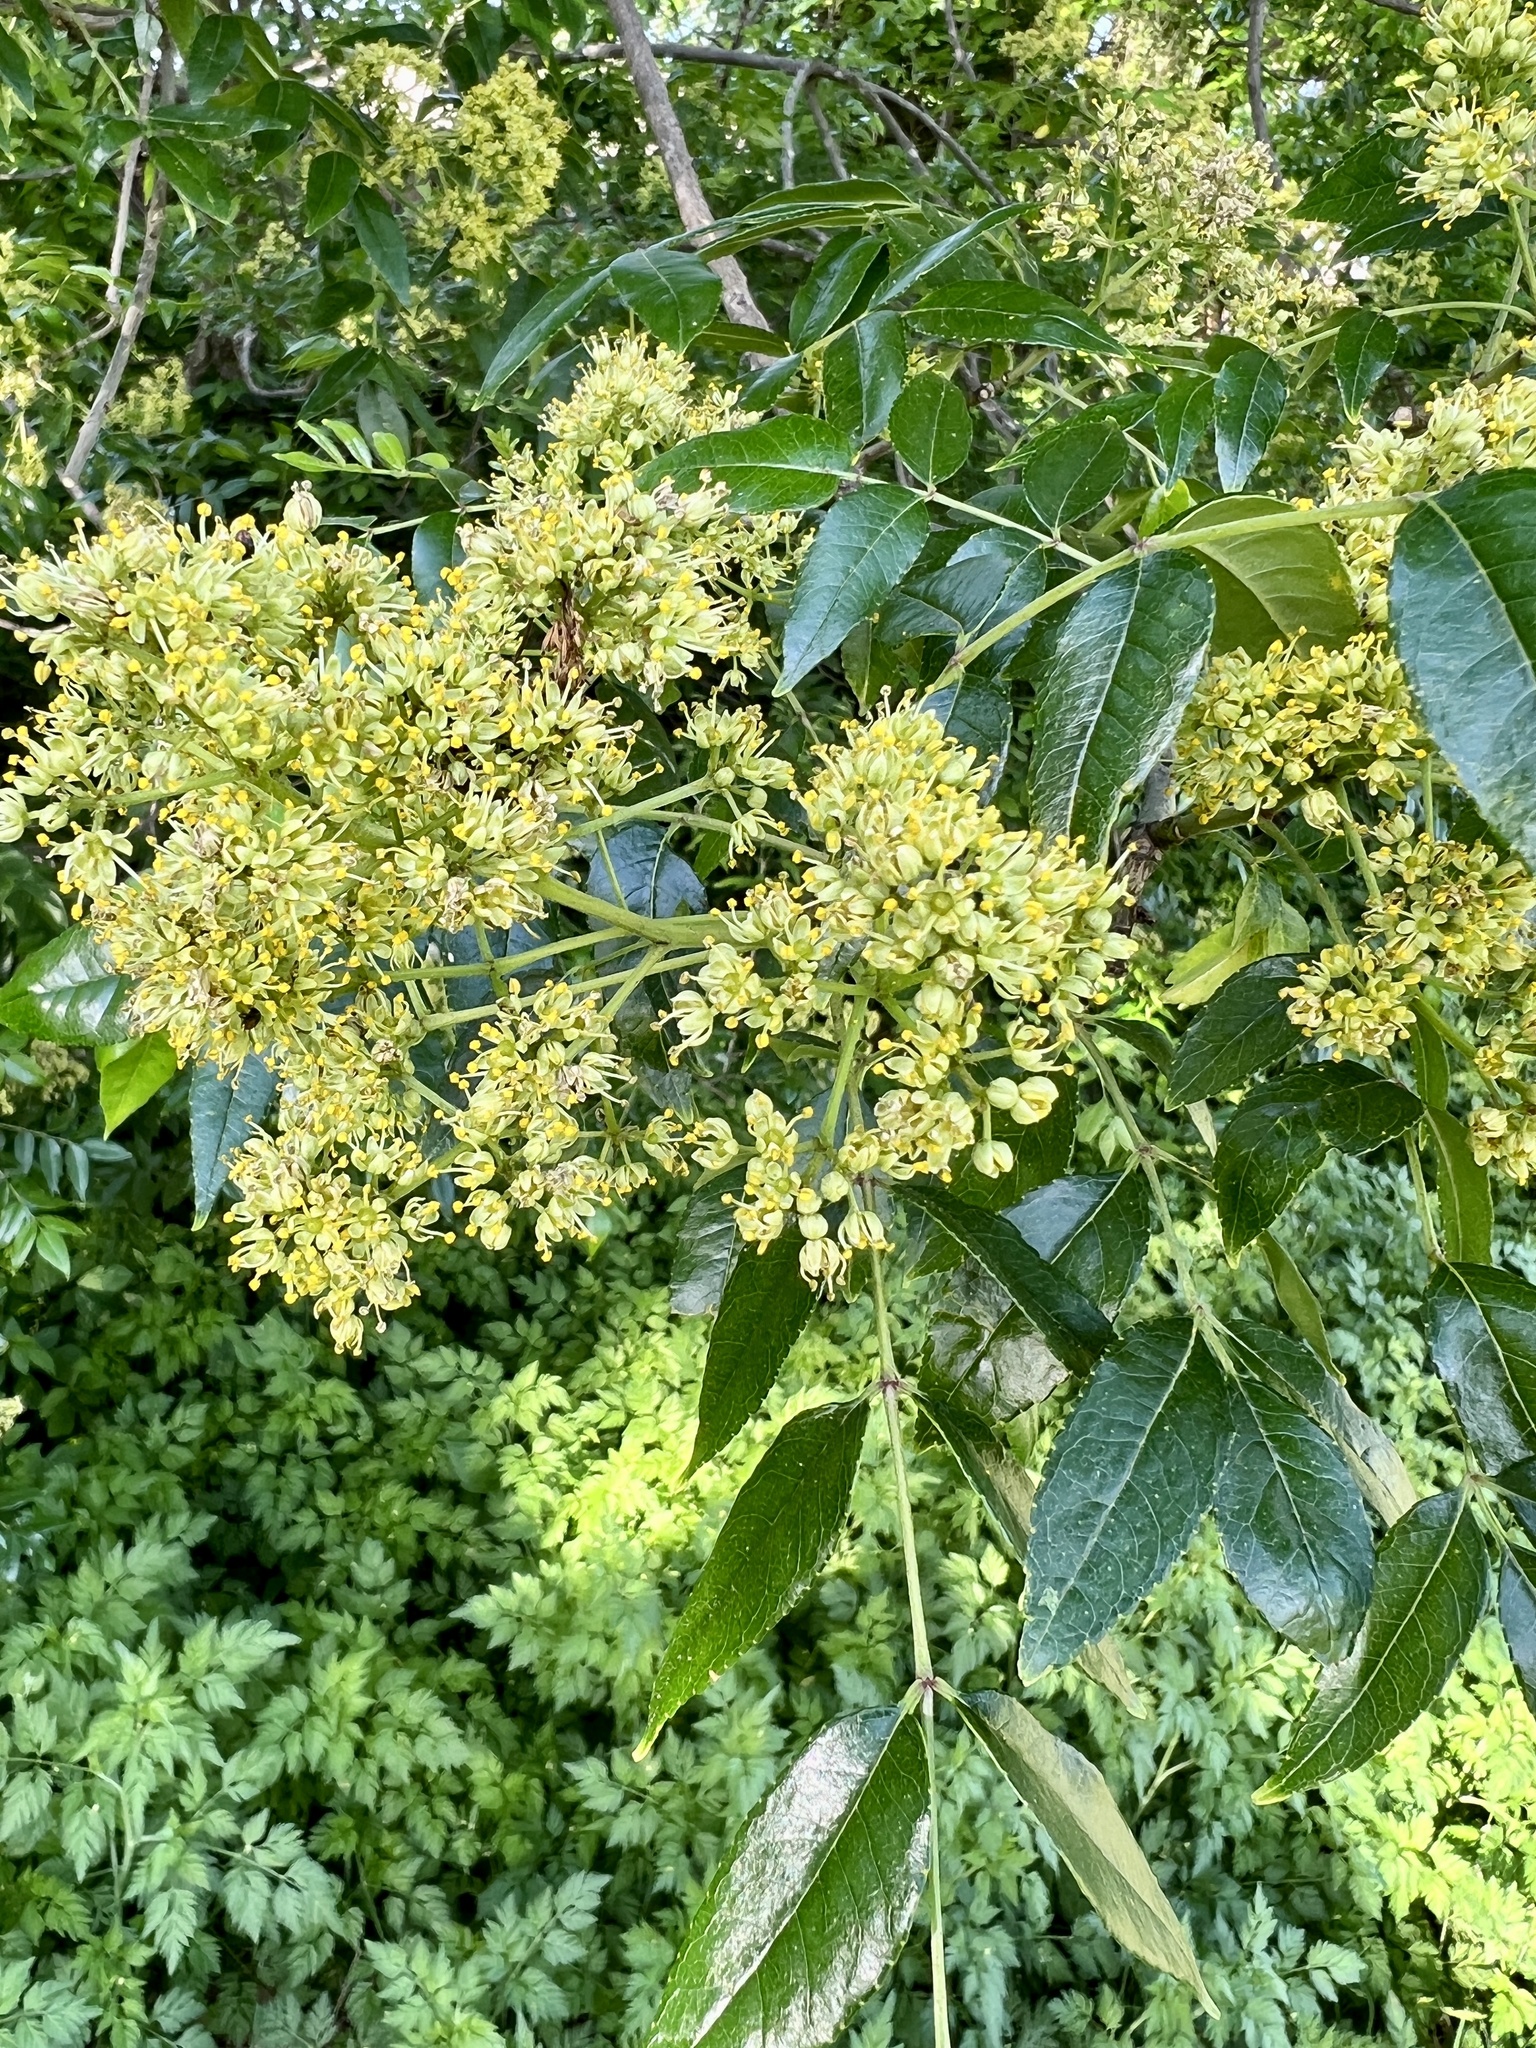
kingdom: Plantae
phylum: Tracheophyta
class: Magnoliopsida
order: Sapindales
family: Rutaceae
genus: Zanthoxylum
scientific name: Zanthoxylum clava-herculis
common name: Hercules'-club
